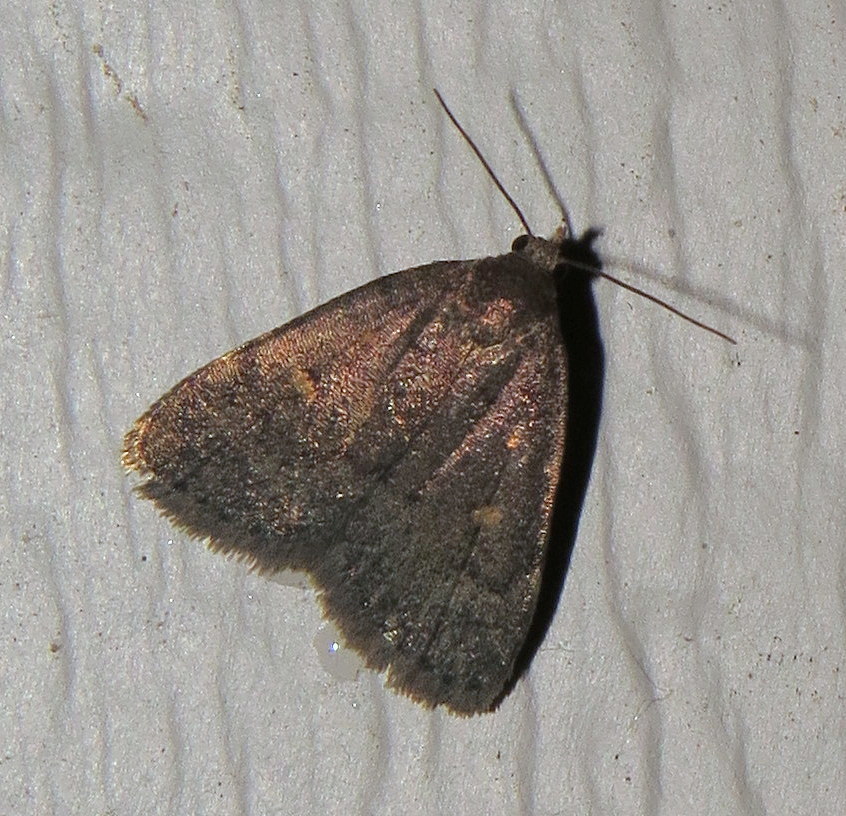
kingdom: Animalia
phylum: Arthropoda
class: Insecta
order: Lepidoptera
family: Erebidae
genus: Idia
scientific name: Idia diminuendis
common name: Orange-spotted idia moth
